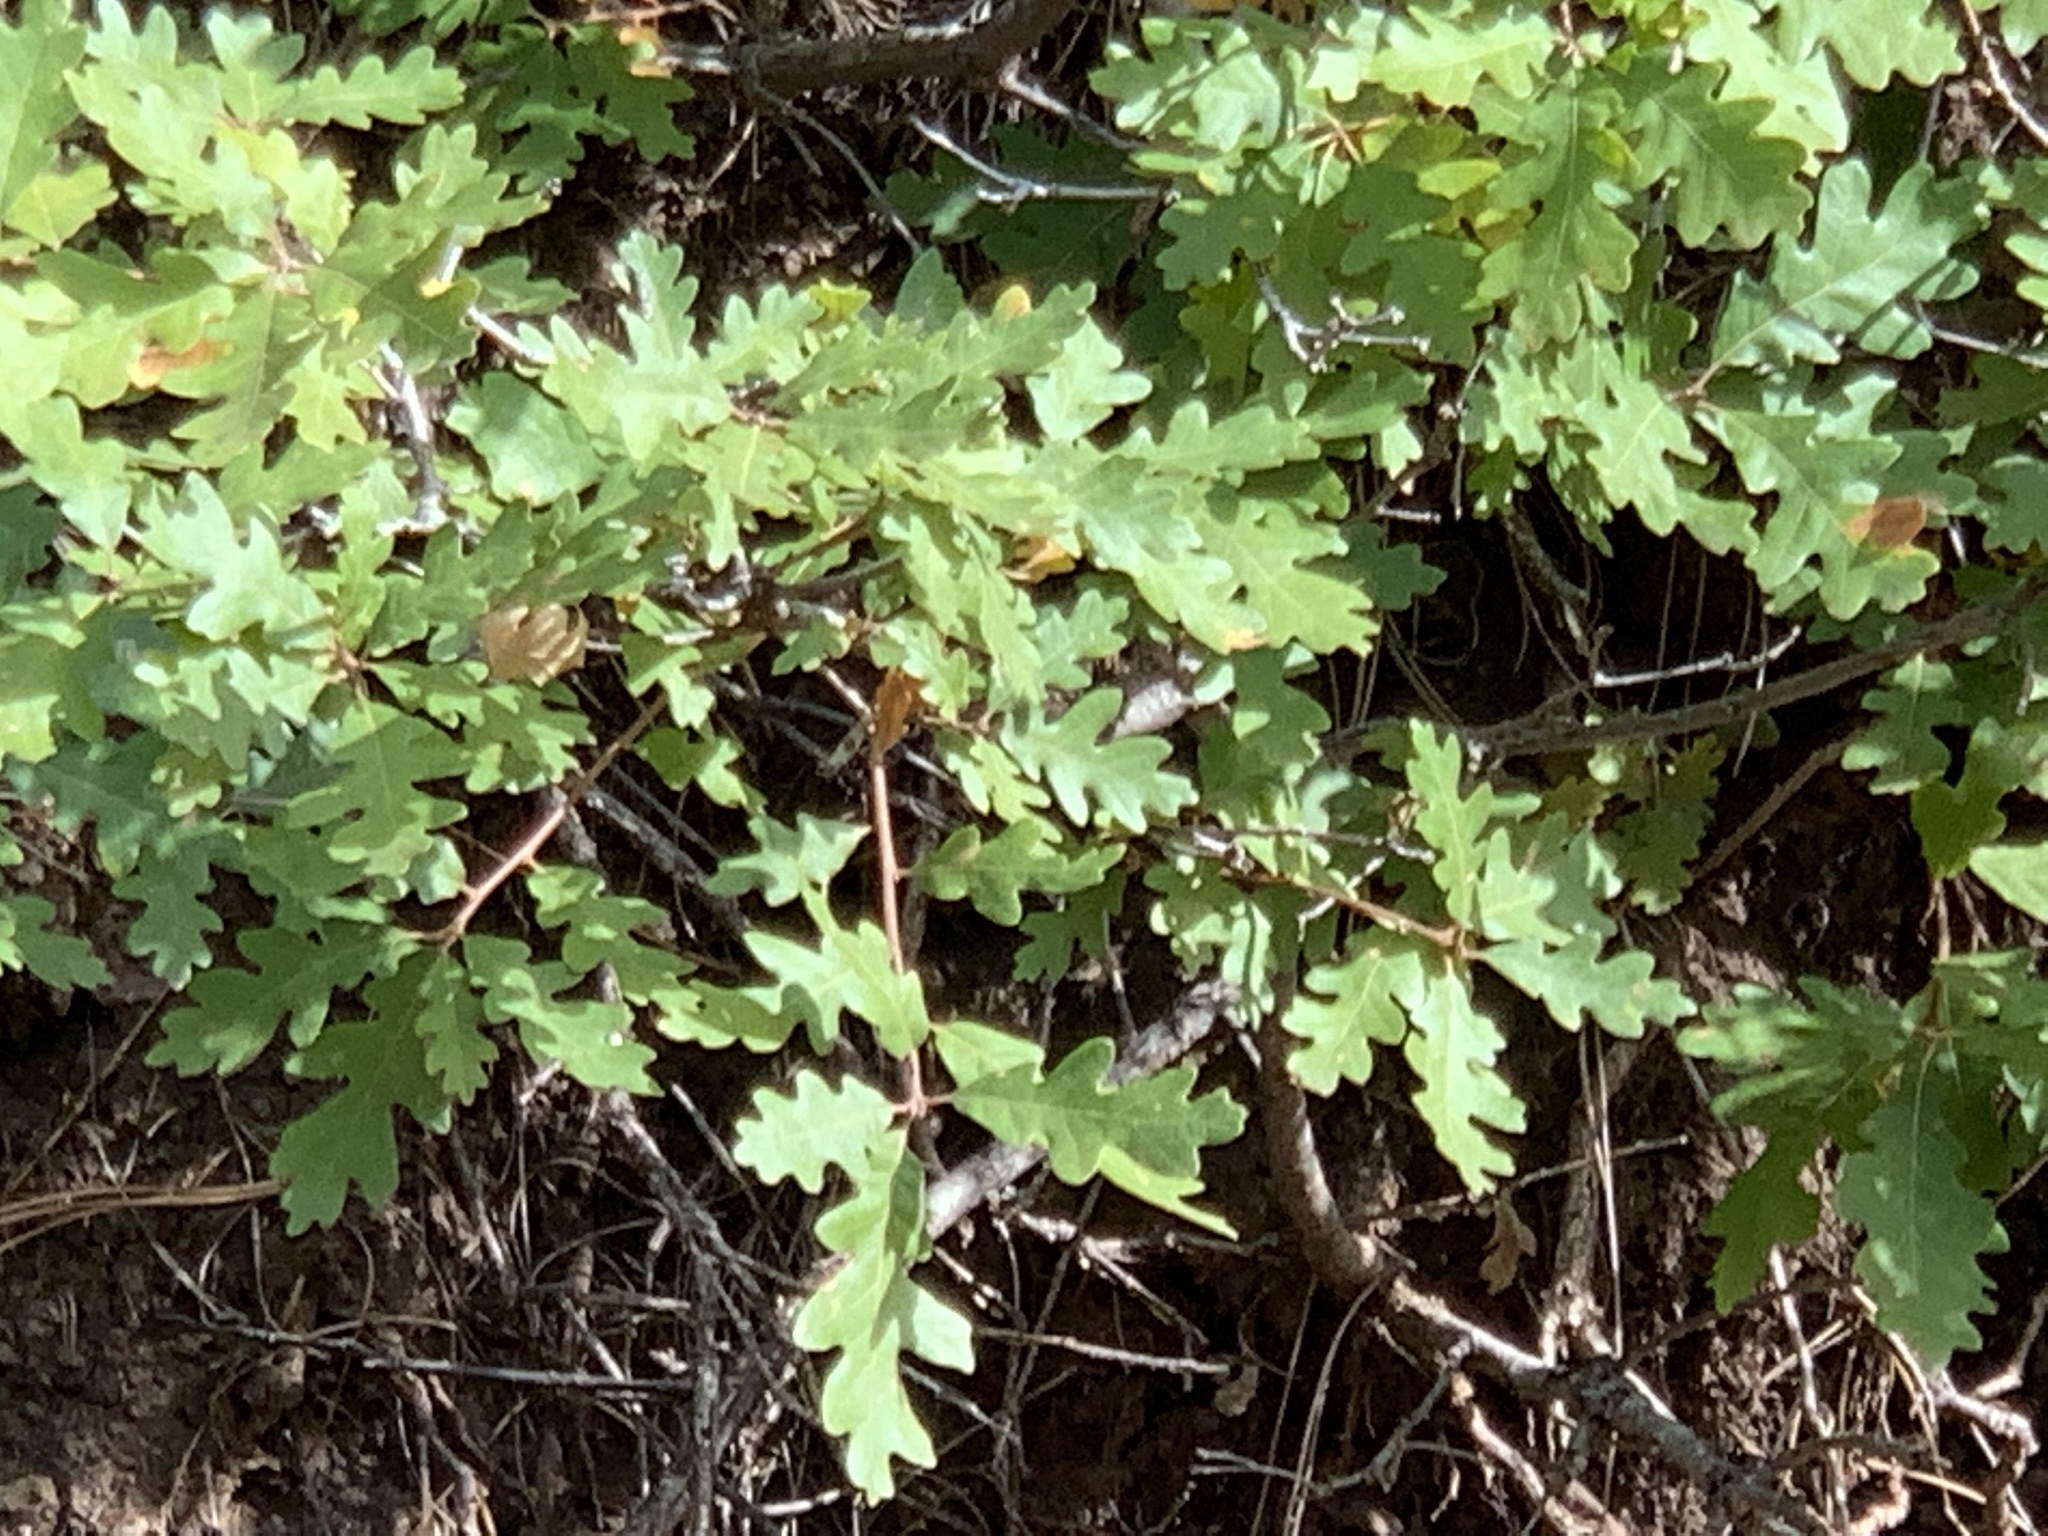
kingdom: Plantae
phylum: Tracheophyta
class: Magnoliopsida
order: Fagales
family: Fagaceae
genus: Quercus
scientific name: Quercus gambelii
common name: Gambel oak
